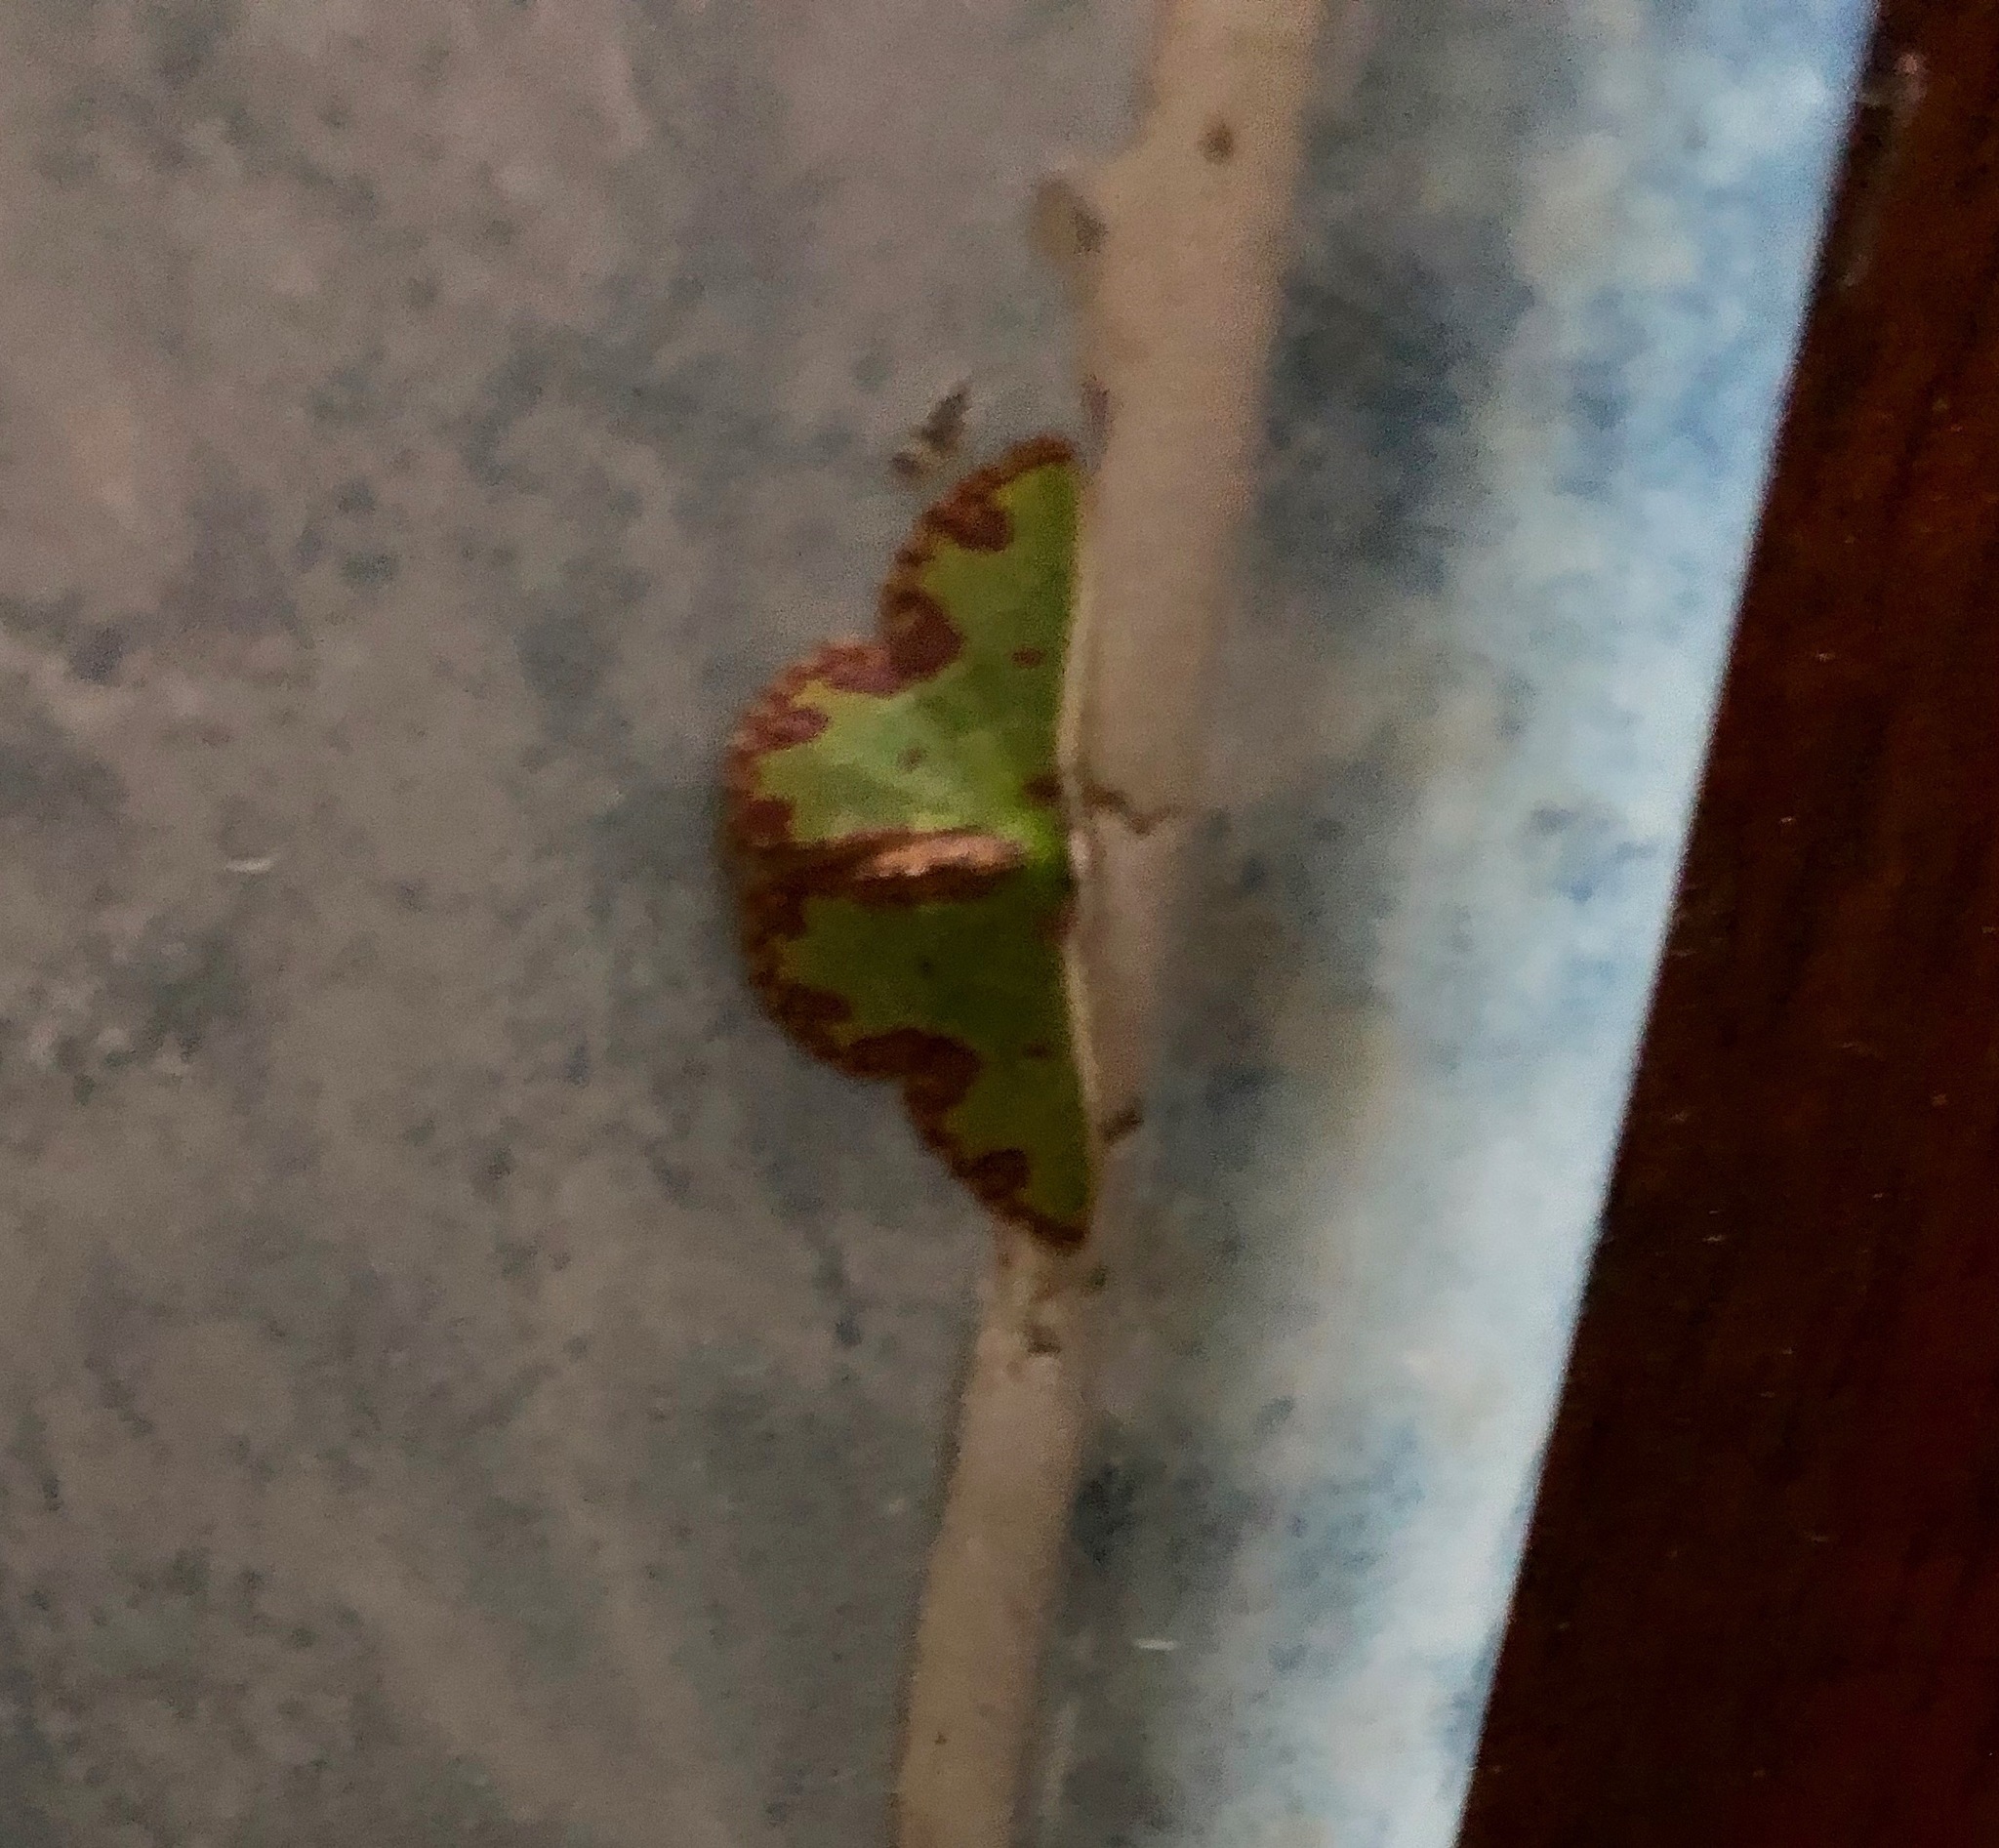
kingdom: Animalia
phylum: Arthropoda
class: Insecta
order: Lepidoptera
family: Geometridae
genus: Synchlora
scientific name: Synchlora gerularia
